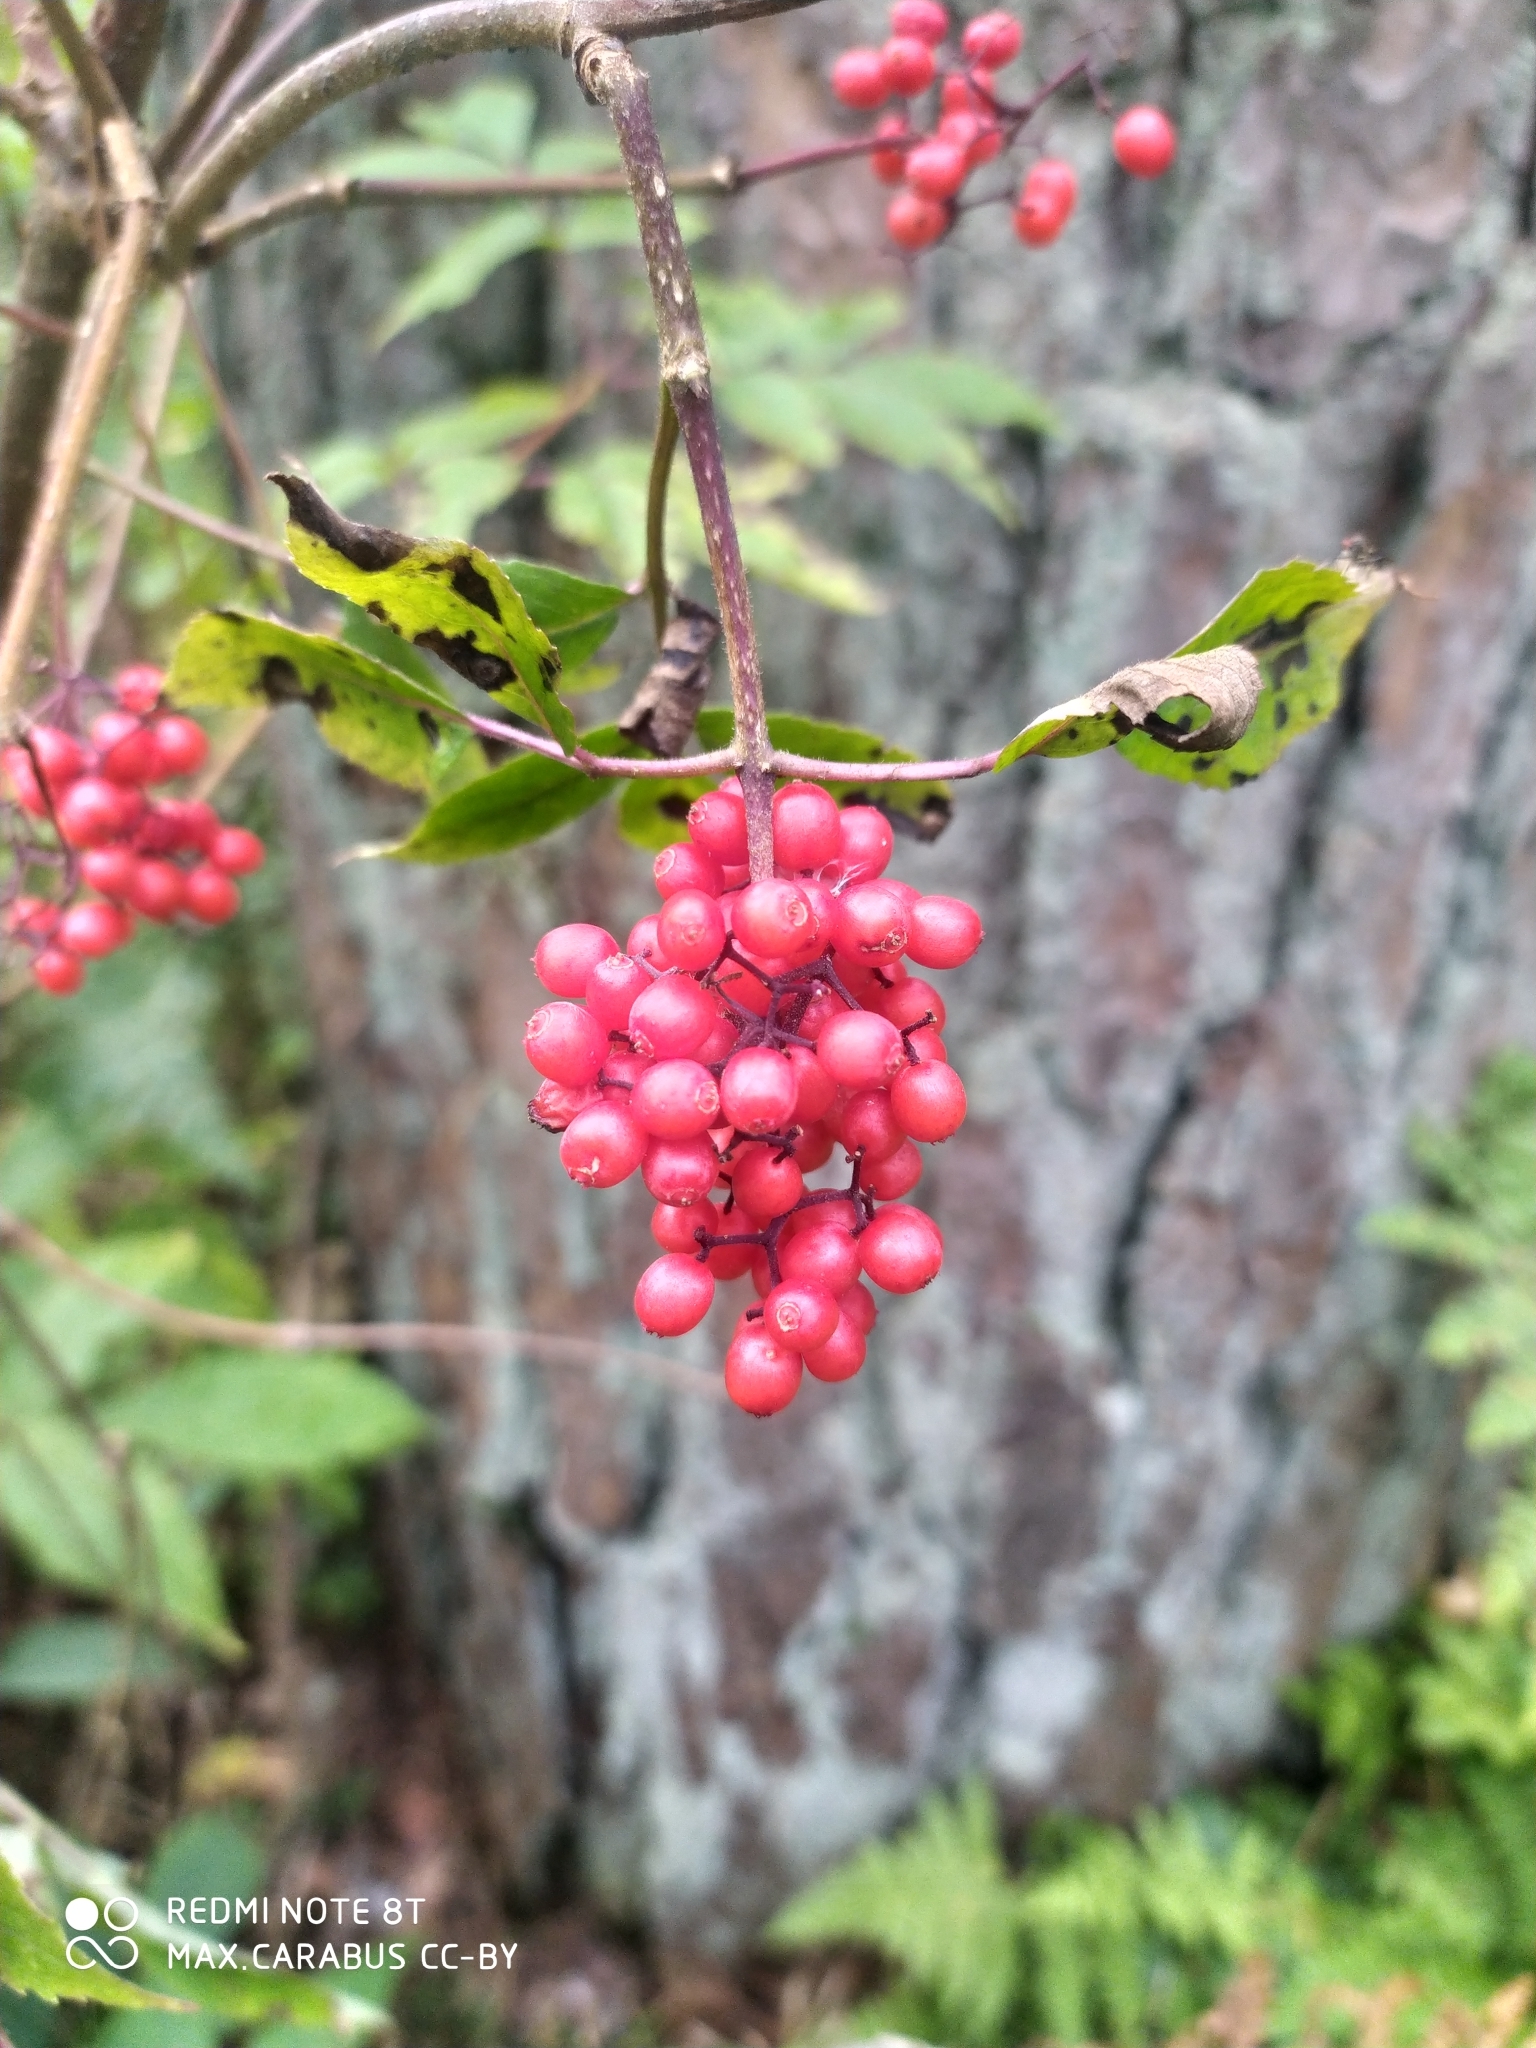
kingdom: Plantae
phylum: Tracheophyta
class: Magnoliopsida
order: Dipsacales
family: Viburnaceae
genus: Sambucus
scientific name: Sambucus racemosa
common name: Red-berried elder
